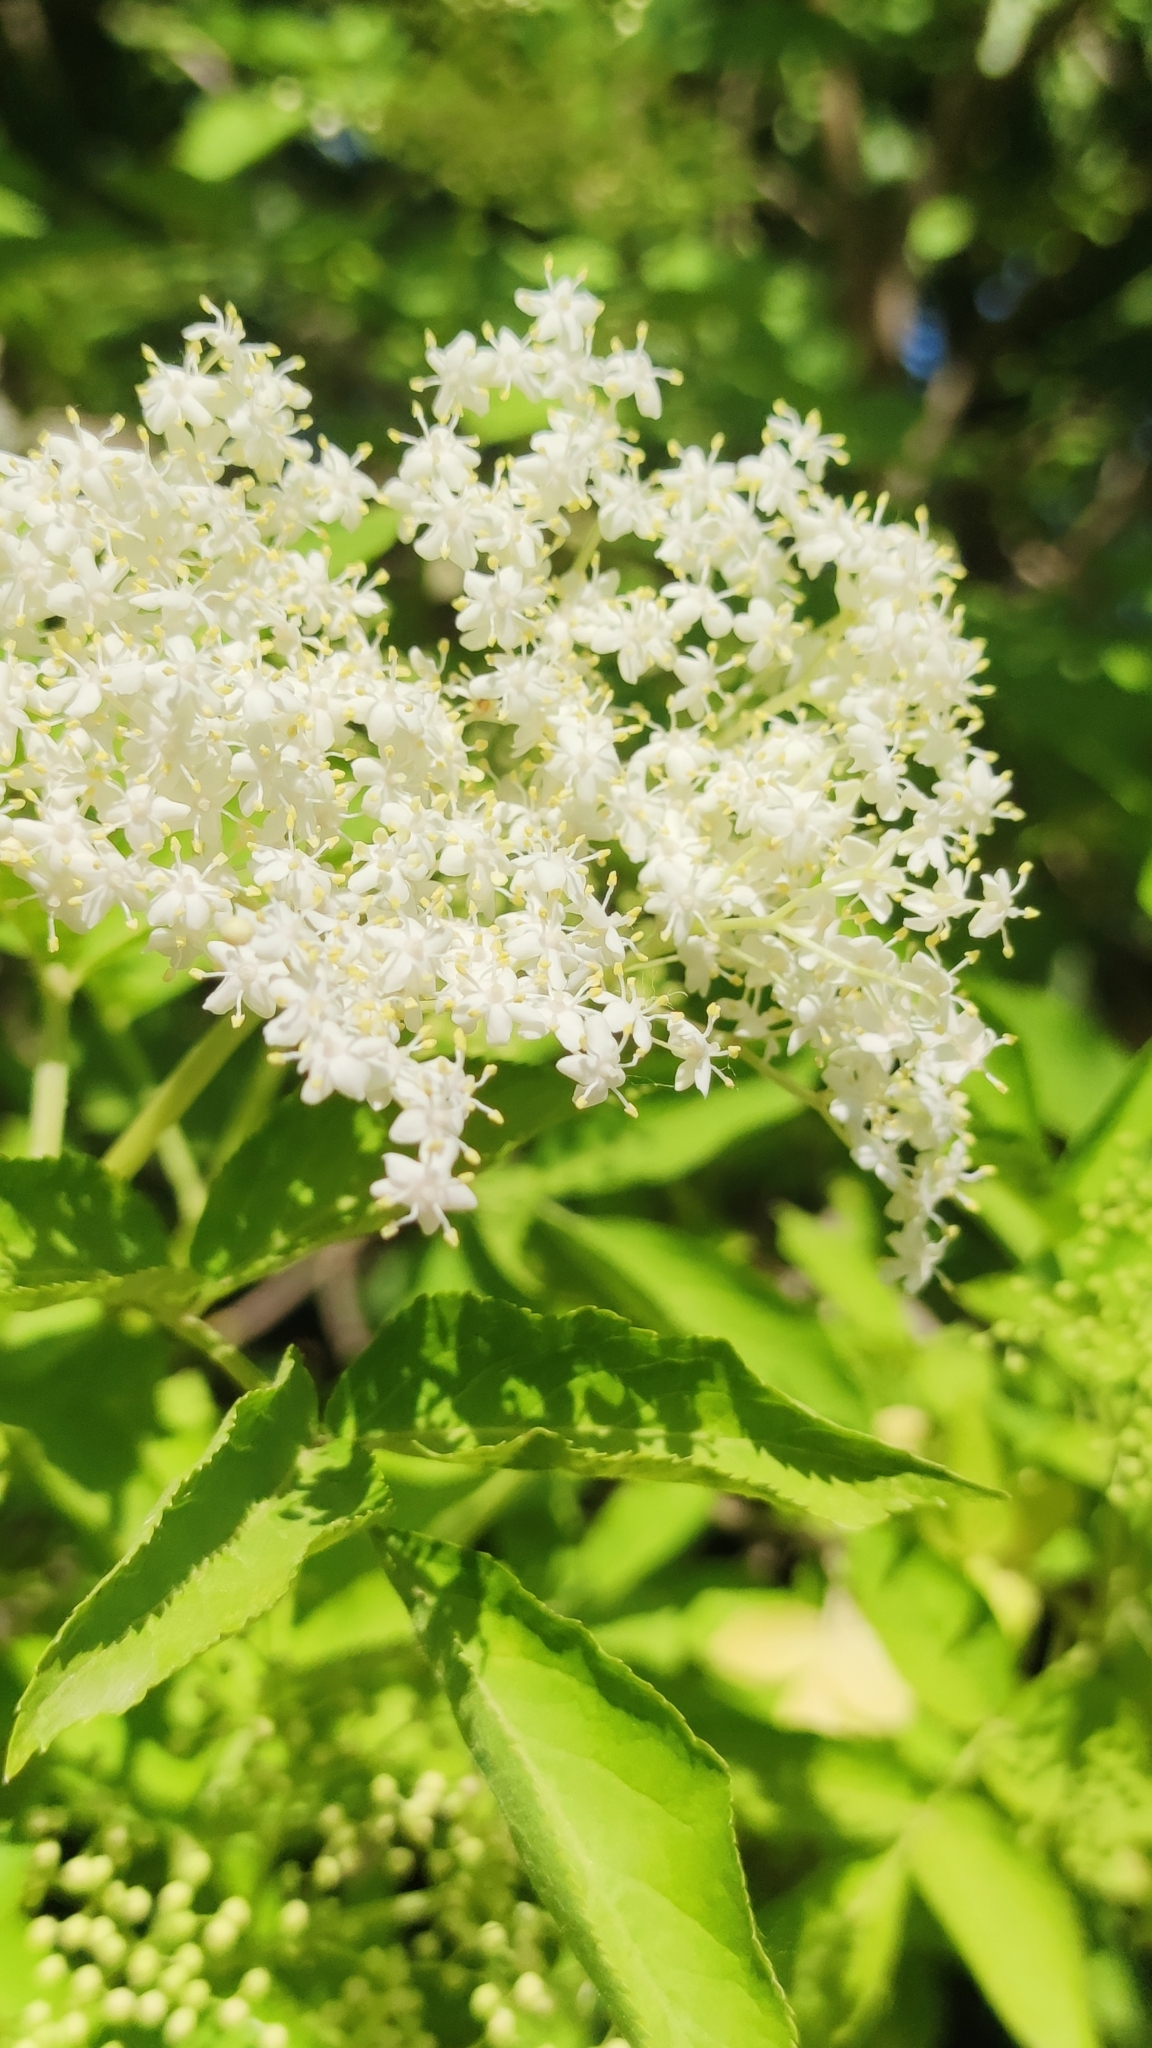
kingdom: Plantae
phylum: Tracheophyta
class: Magnoliopsida
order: Dipsacales
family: Viburnaceae
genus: Sambucus
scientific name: Sambucus nigra
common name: Elder
